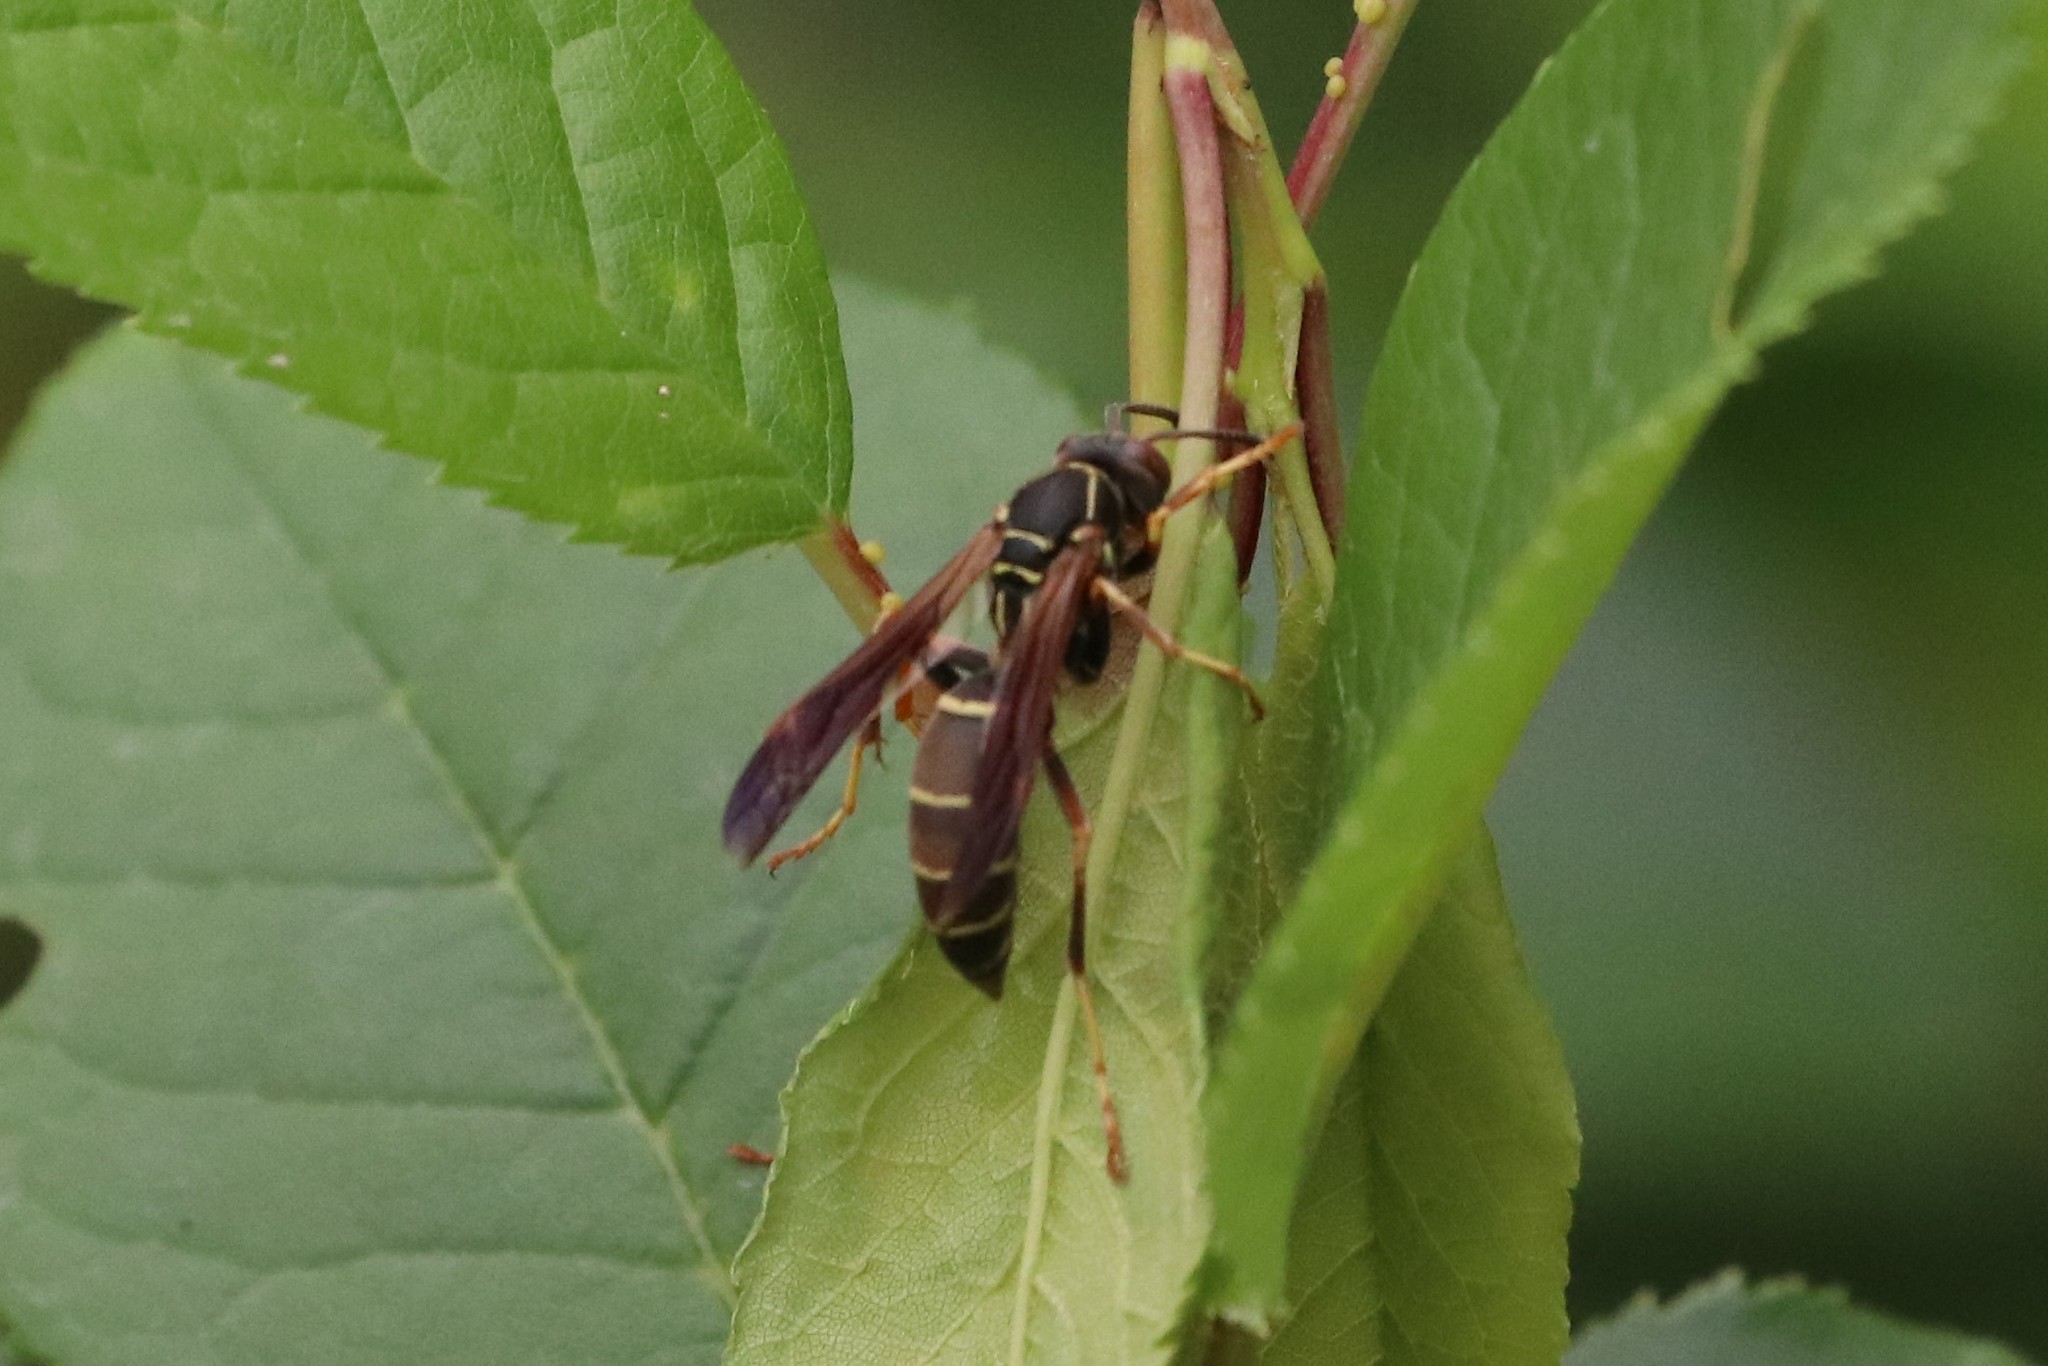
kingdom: Animalia
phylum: Arthropoda
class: Insecta
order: Hymenoptera
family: Eumenidae
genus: Polistes
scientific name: Polistes fuscatus
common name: Dark paper wasp
